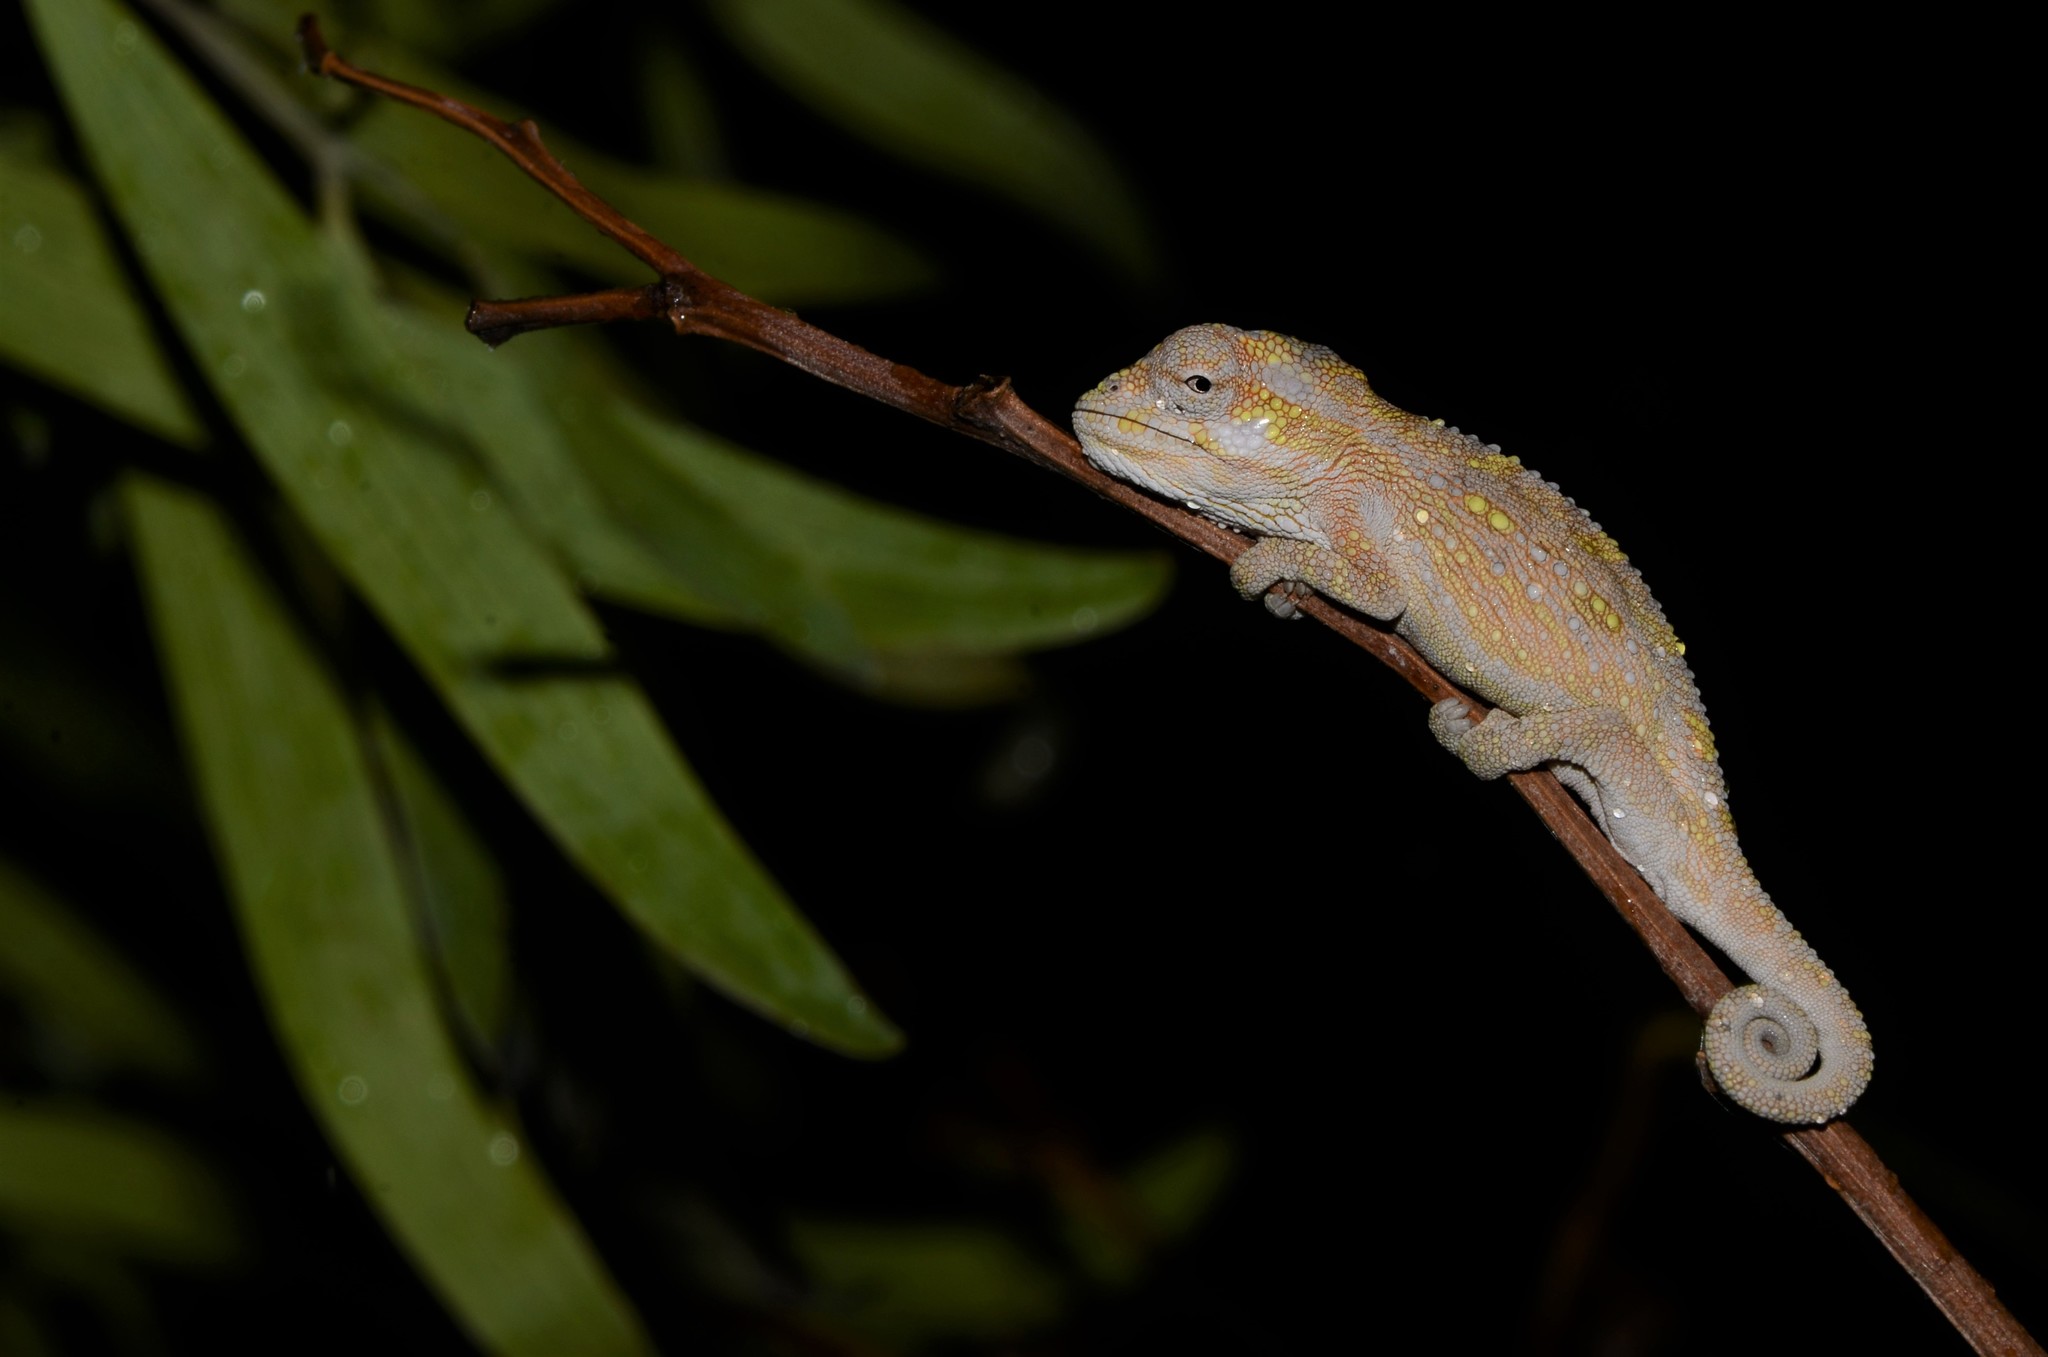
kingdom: Animalia
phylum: Chordata
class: Squamata
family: Chamaeleonidae
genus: Bradypodion
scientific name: Bradypodion pumilum
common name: Cape dwarf chameleon
